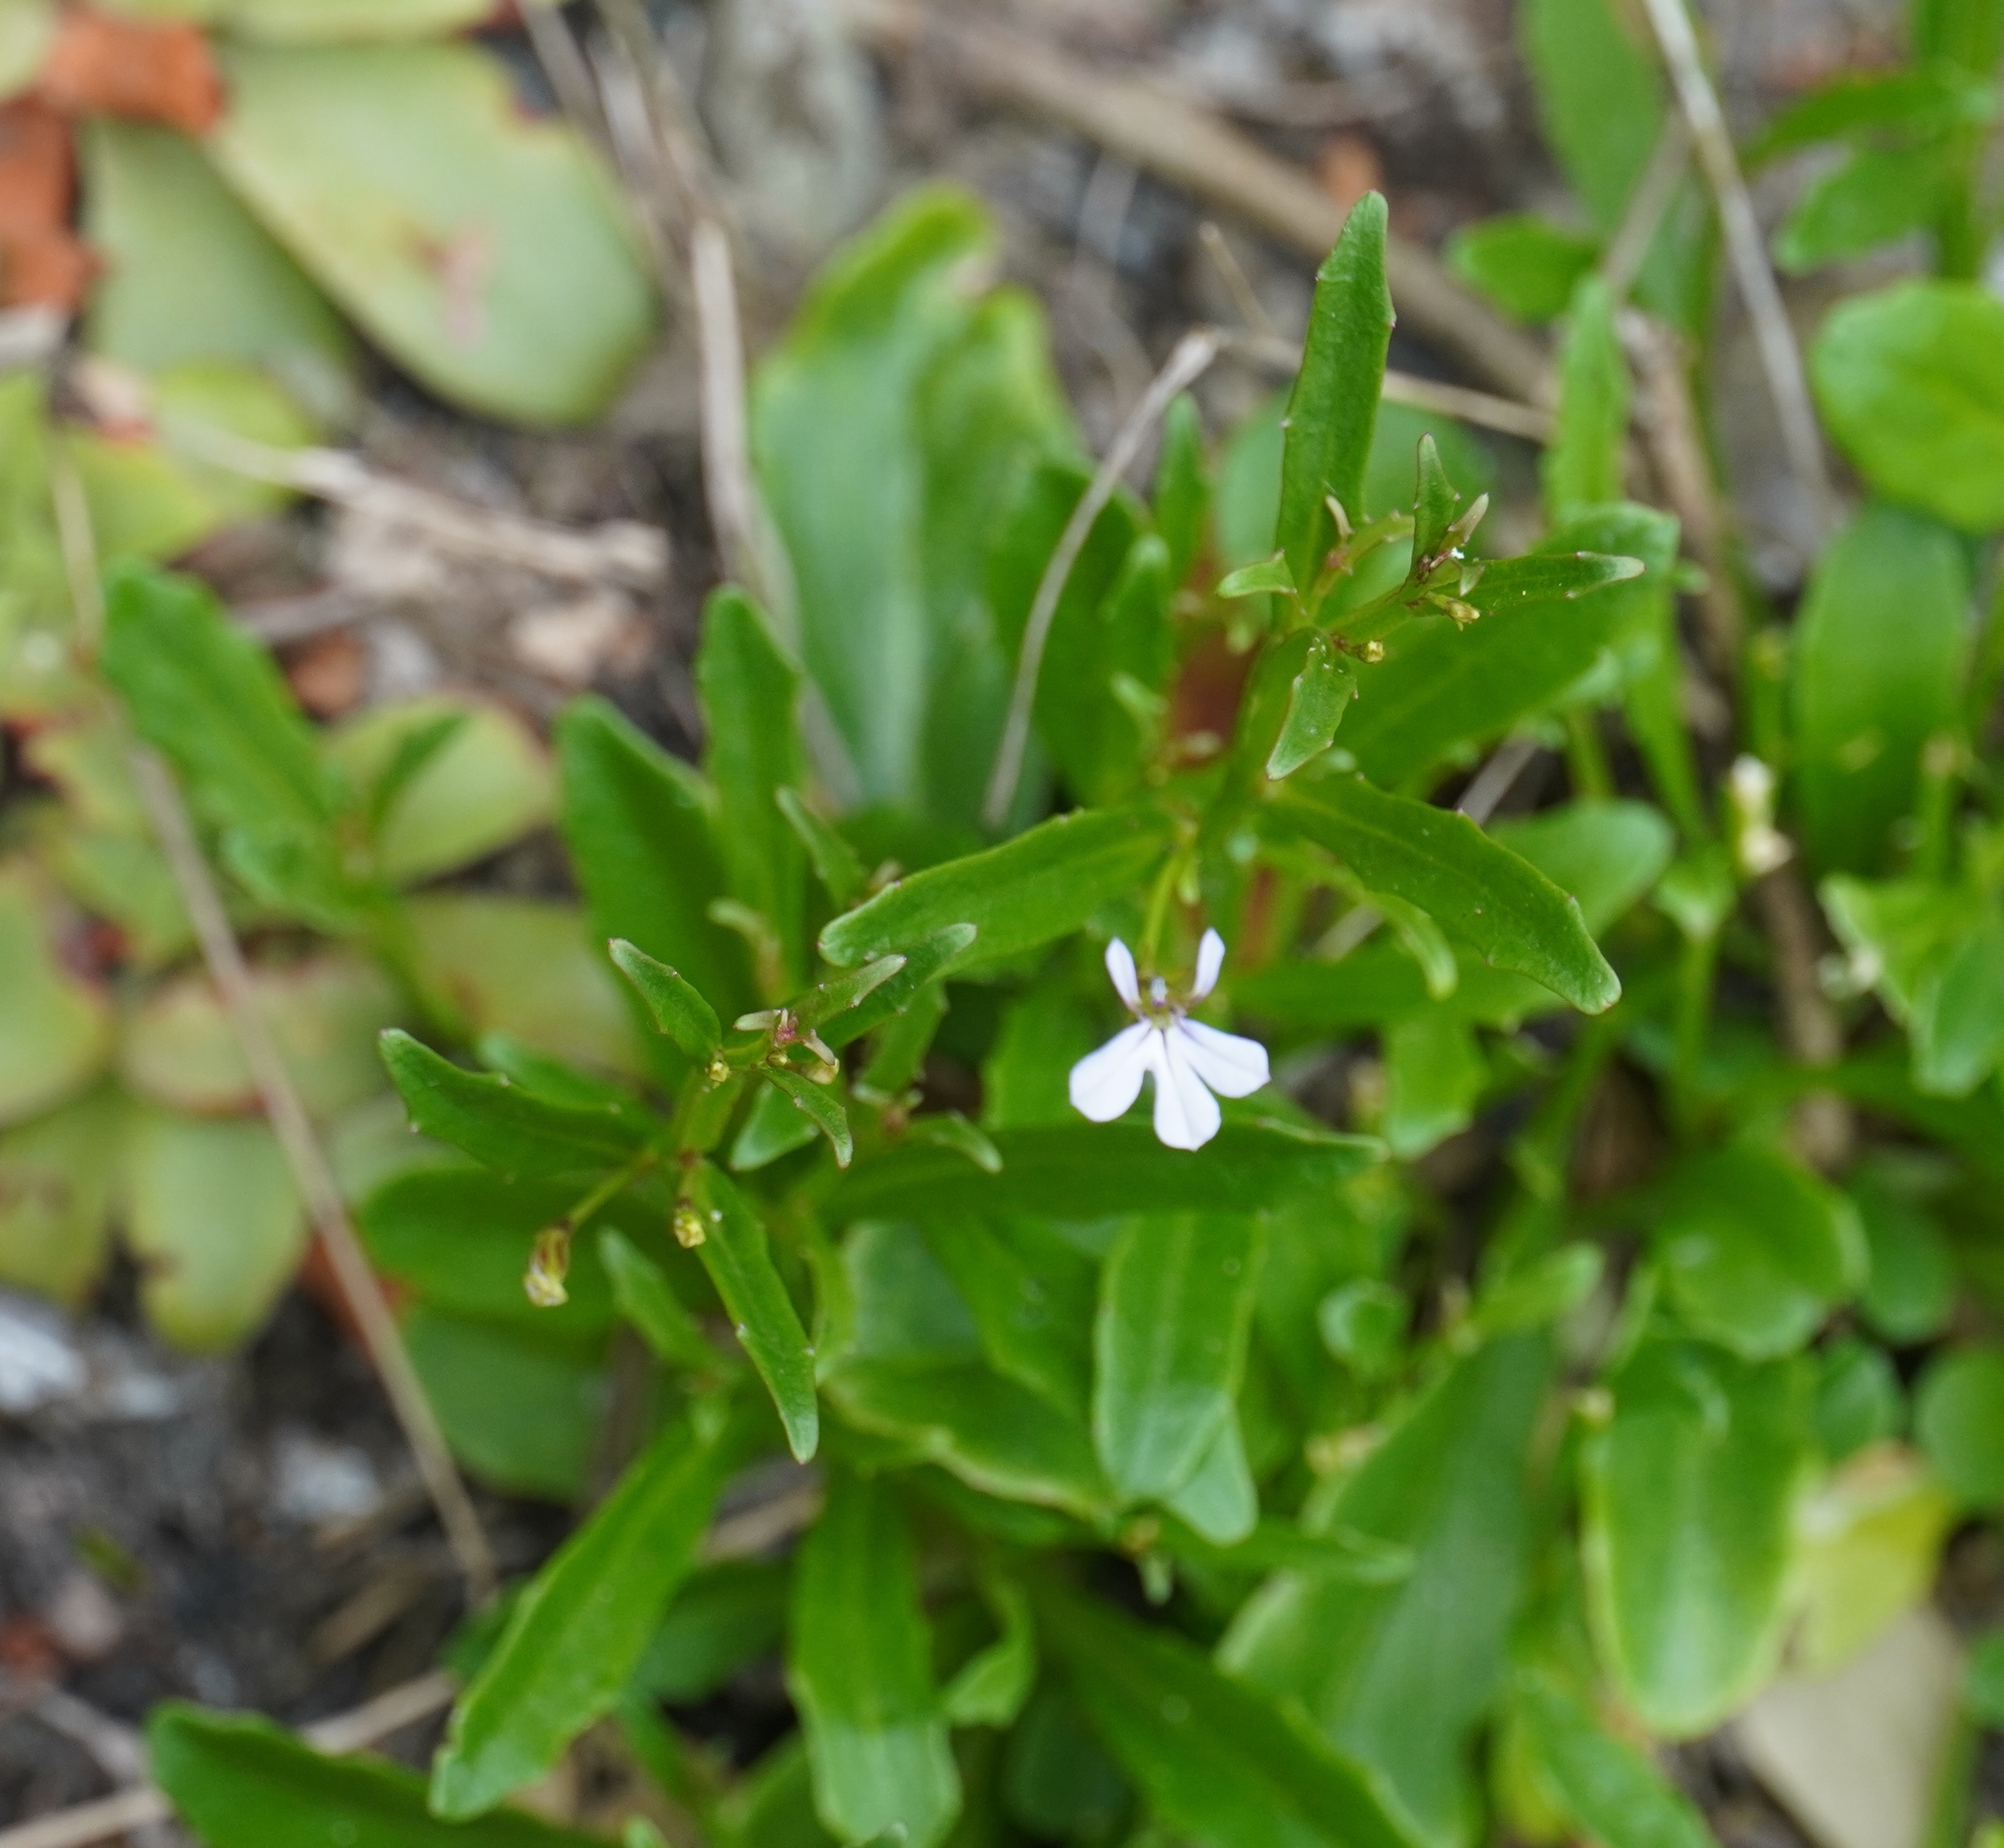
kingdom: Plantae
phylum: Tracheophyta
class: Magnoliopsida
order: Asterales
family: Campanulaceae
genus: Lobelia
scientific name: Lobelia anceps
